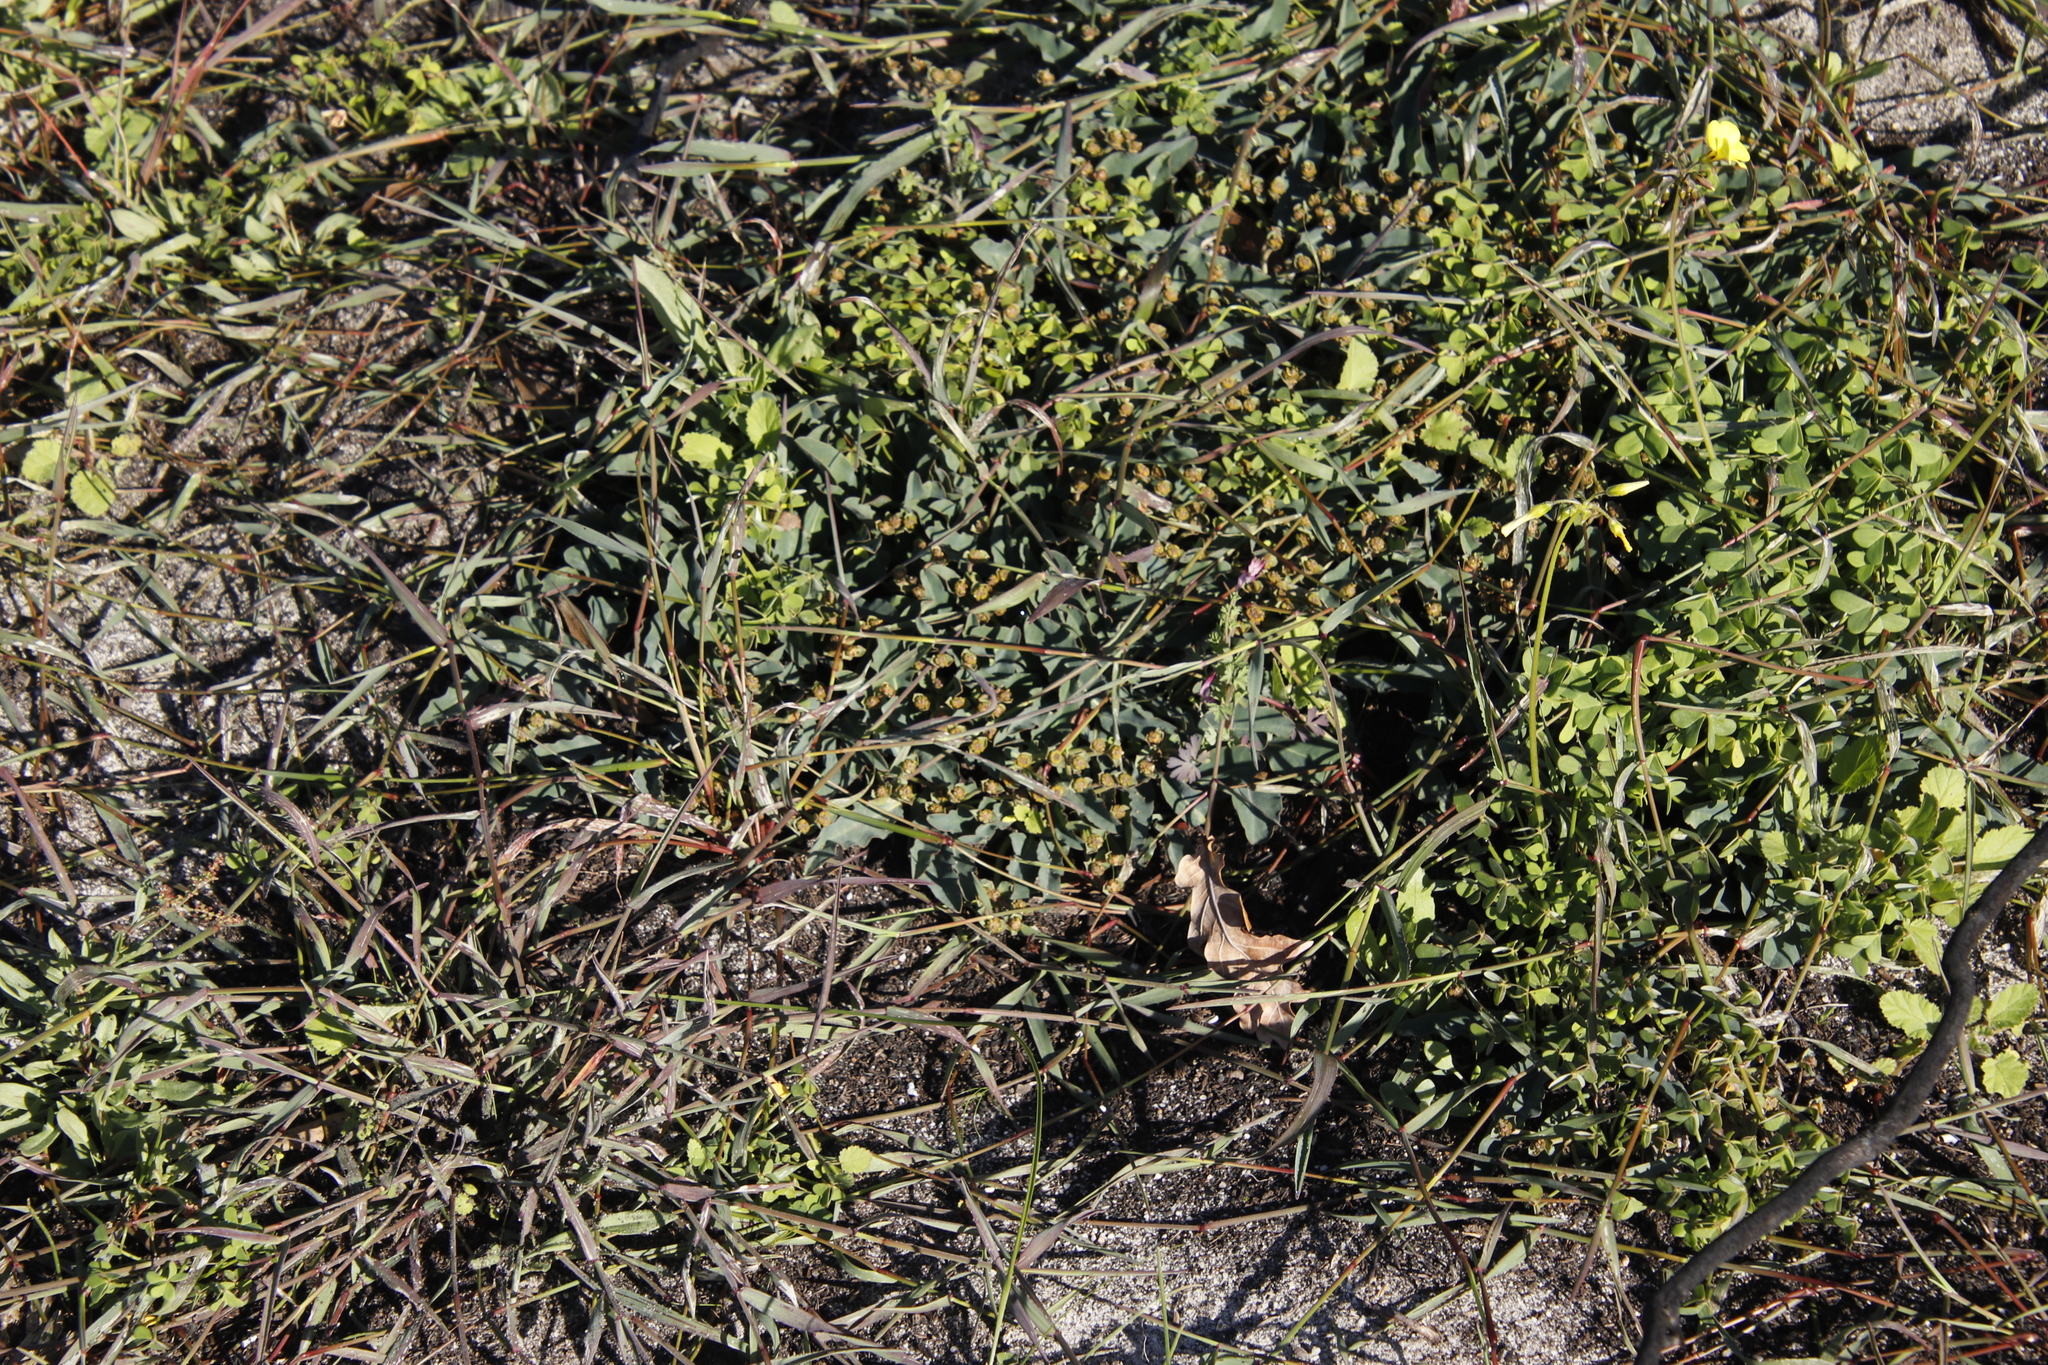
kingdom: Plantae
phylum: Tracheophyta
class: Magnoliopsida
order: Malpighiales
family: Euphorbiaceae
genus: Euphorbia
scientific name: Euphorbia tuberosa
